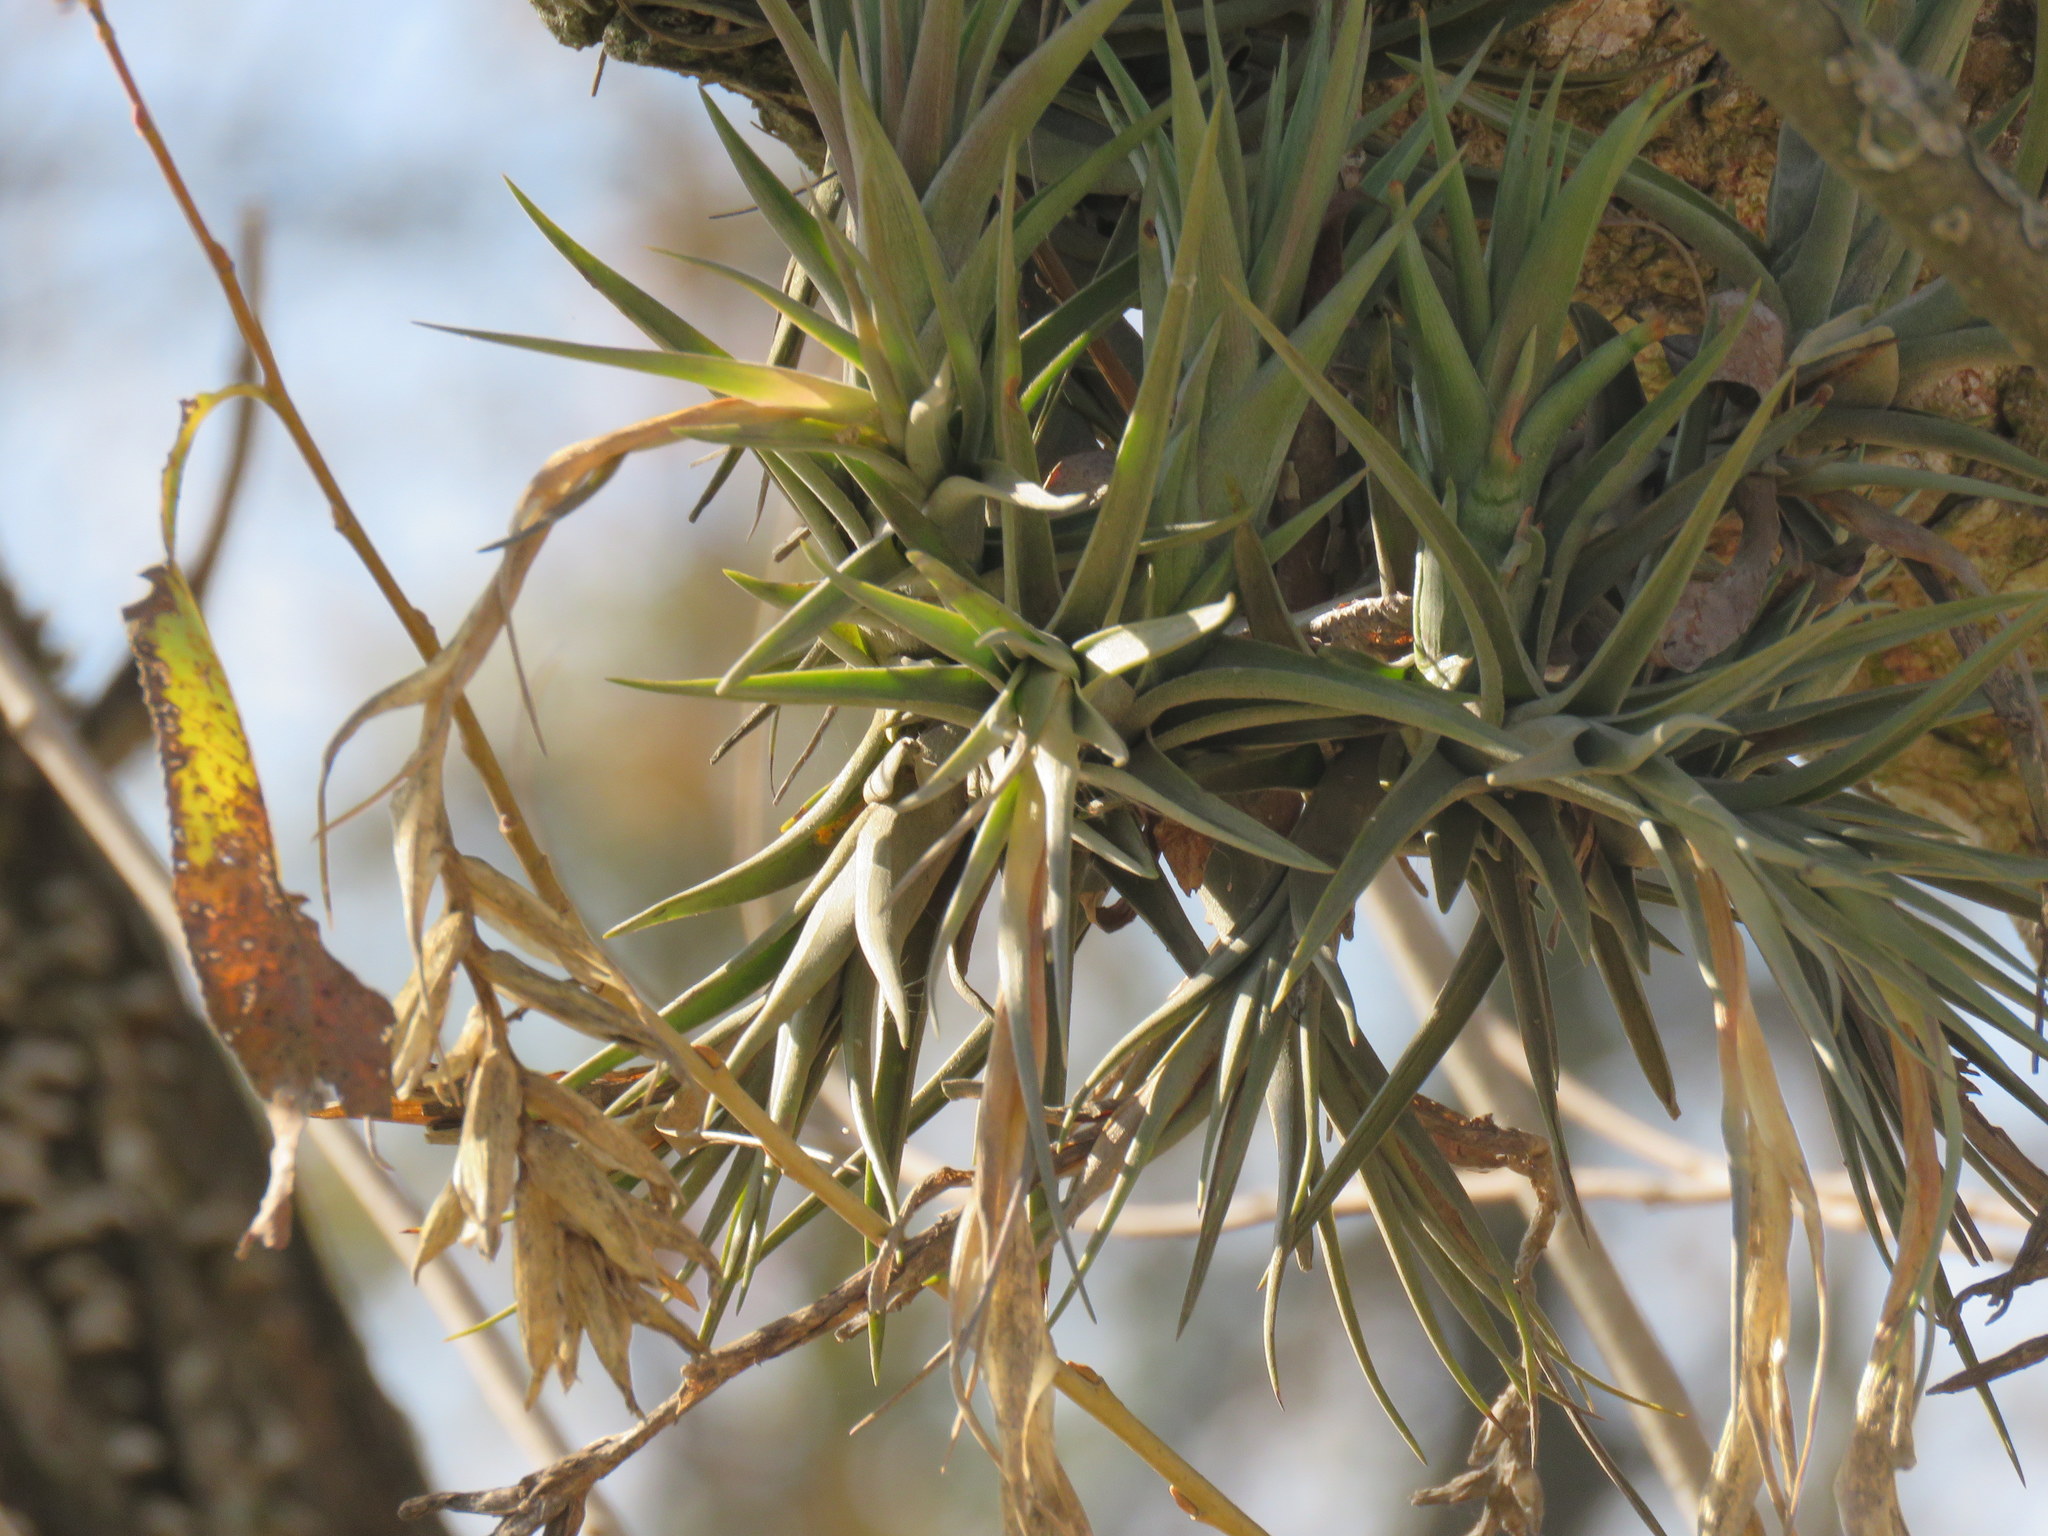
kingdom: Plantae
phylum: Tracheophyta
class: Liliopsida
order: Poales
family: Bromeliaceae
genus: Tillandsia
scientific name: Tillandsia aeranthos
